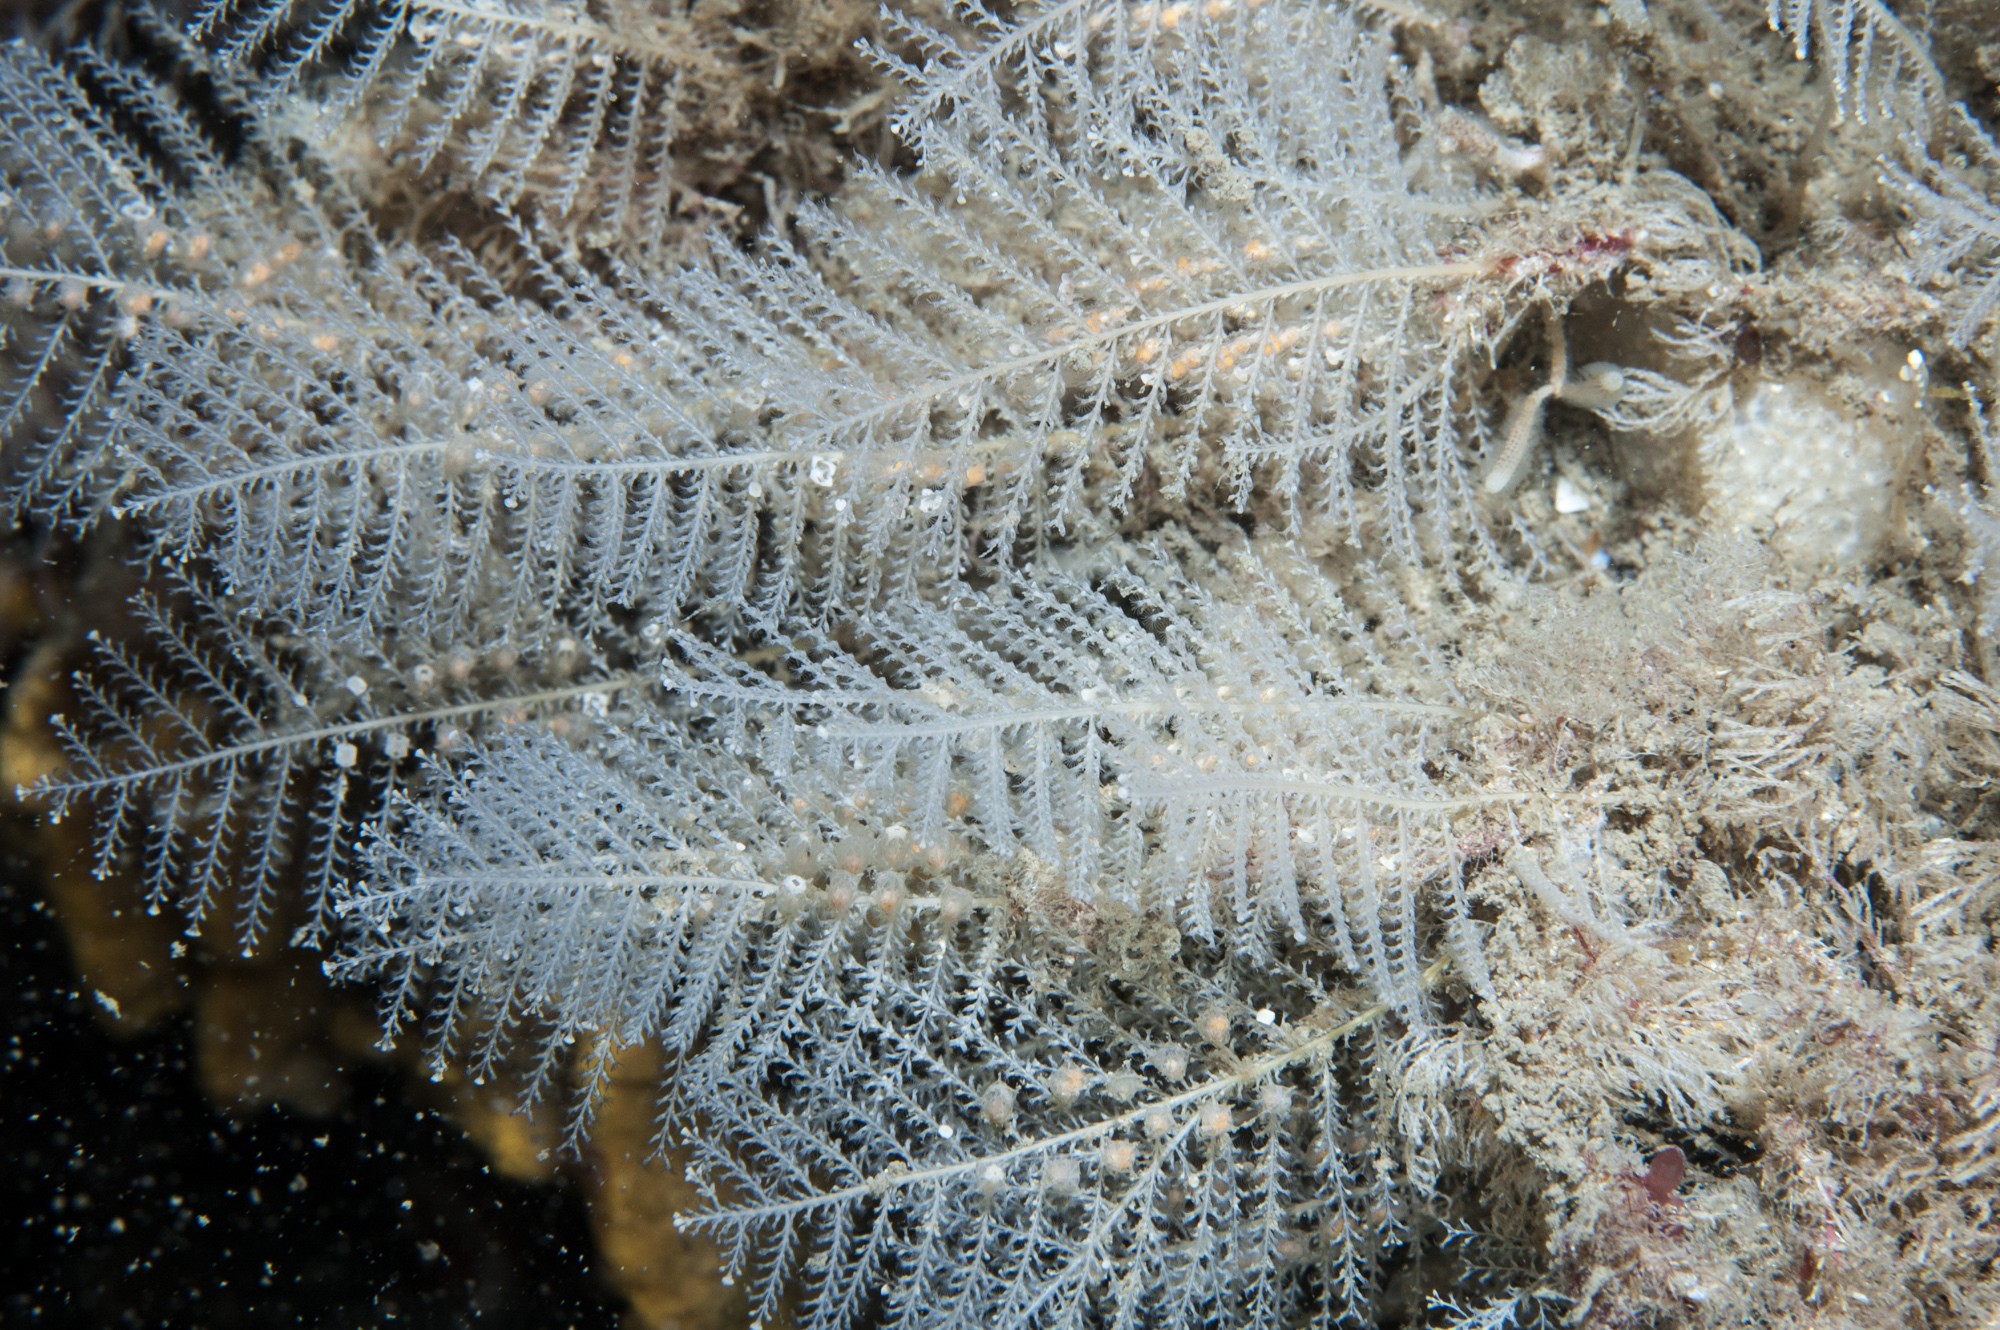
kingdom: Animalia
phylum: Cnidaria
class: Hydrozoa
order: Leptothecata
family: Sertulariidae
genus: Diphasia
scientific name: Diphasia margareta
